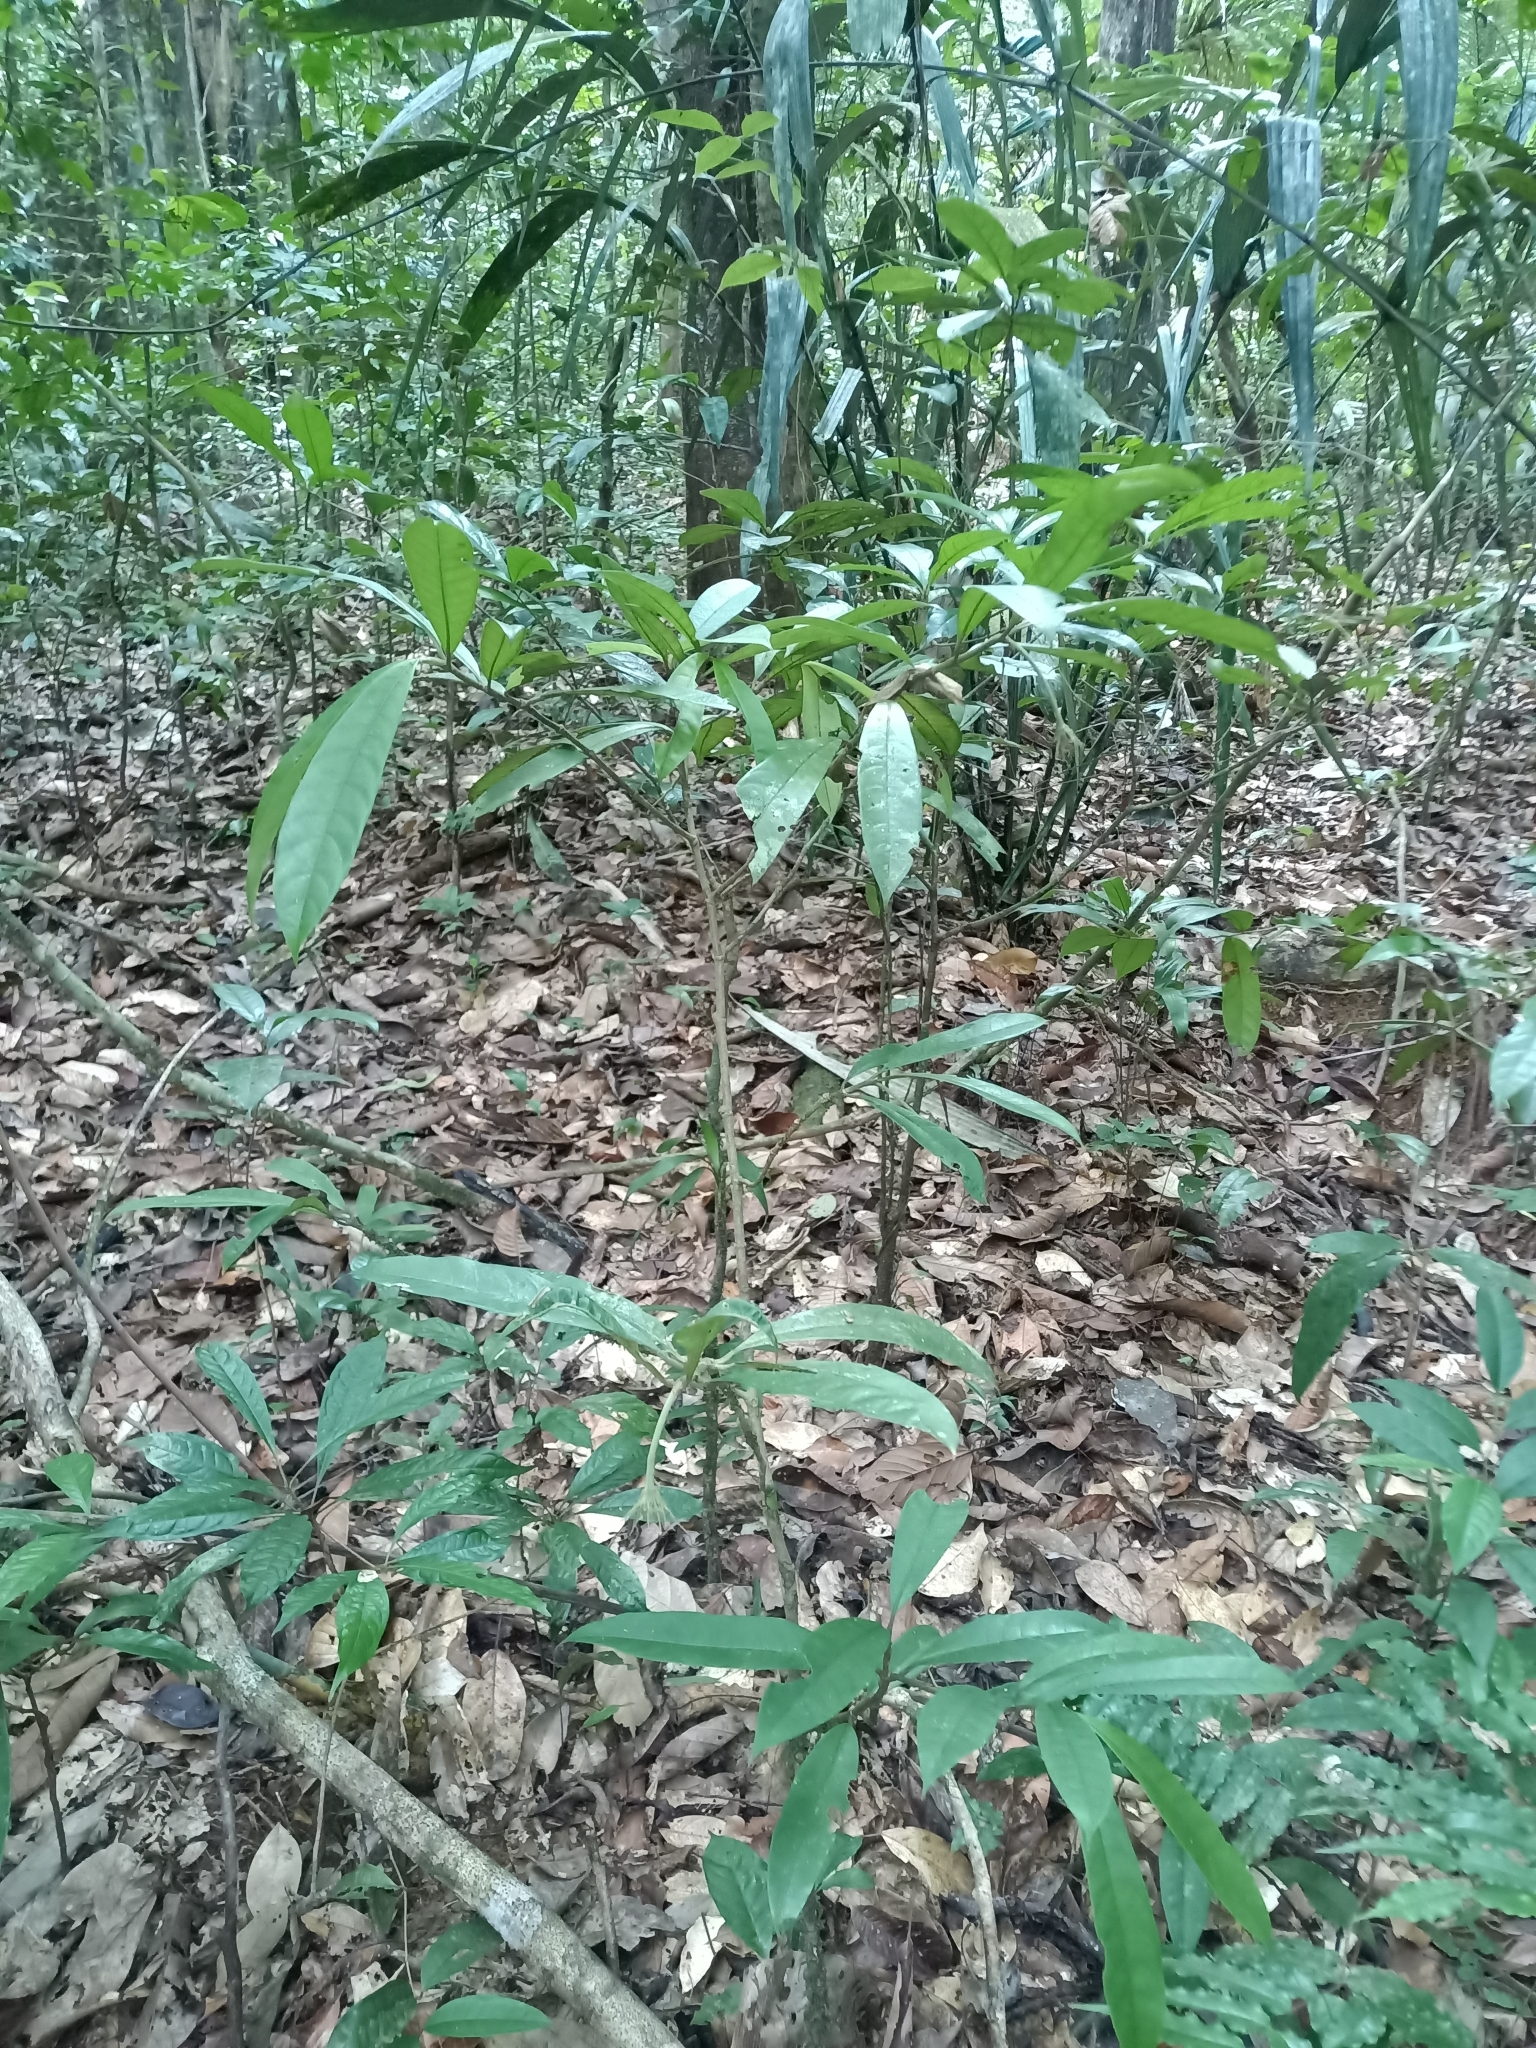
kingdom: Plantae
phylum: Tracheophyta
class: Magnoliopsida
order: Gentianales
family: Rubiaceae
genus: Rudgea
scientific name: Rudgea glomerulata
